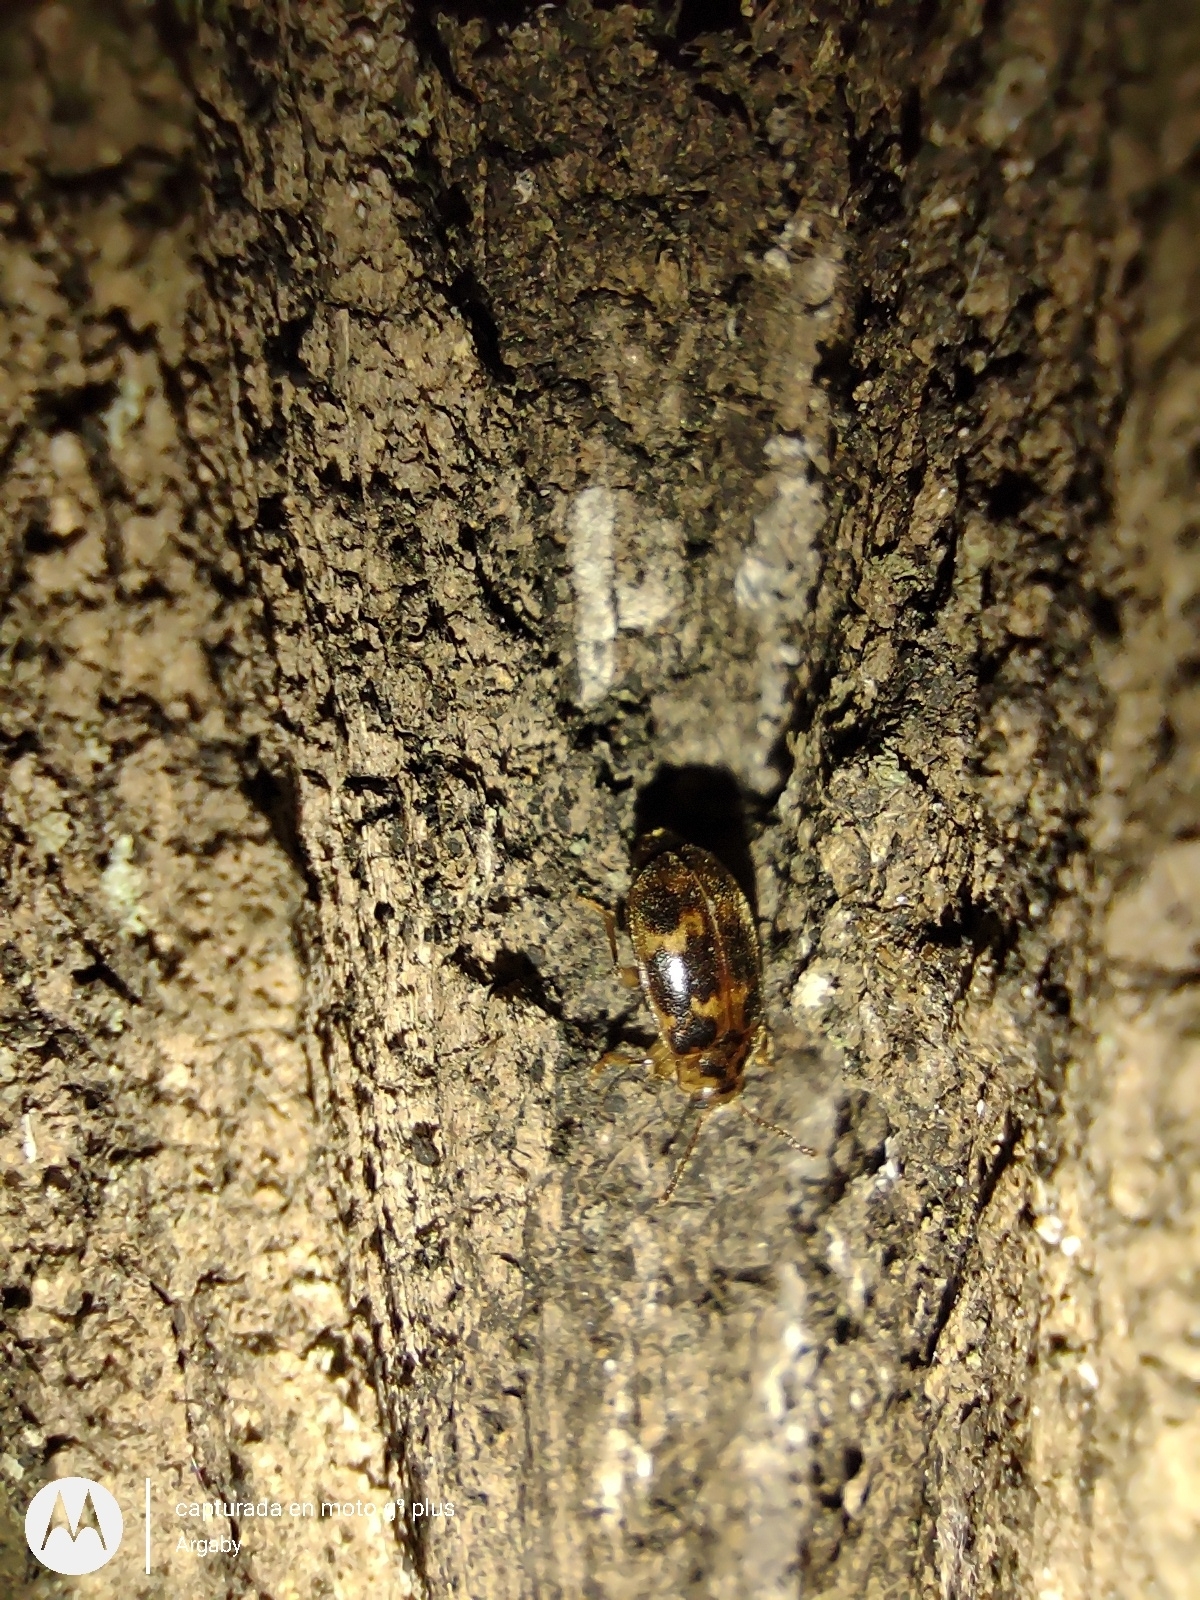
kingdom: Animalia
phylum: Arthropoda
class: Insecta
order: Coleoptera
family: Endomychidae
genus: Epopterus
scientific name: Epopterus
